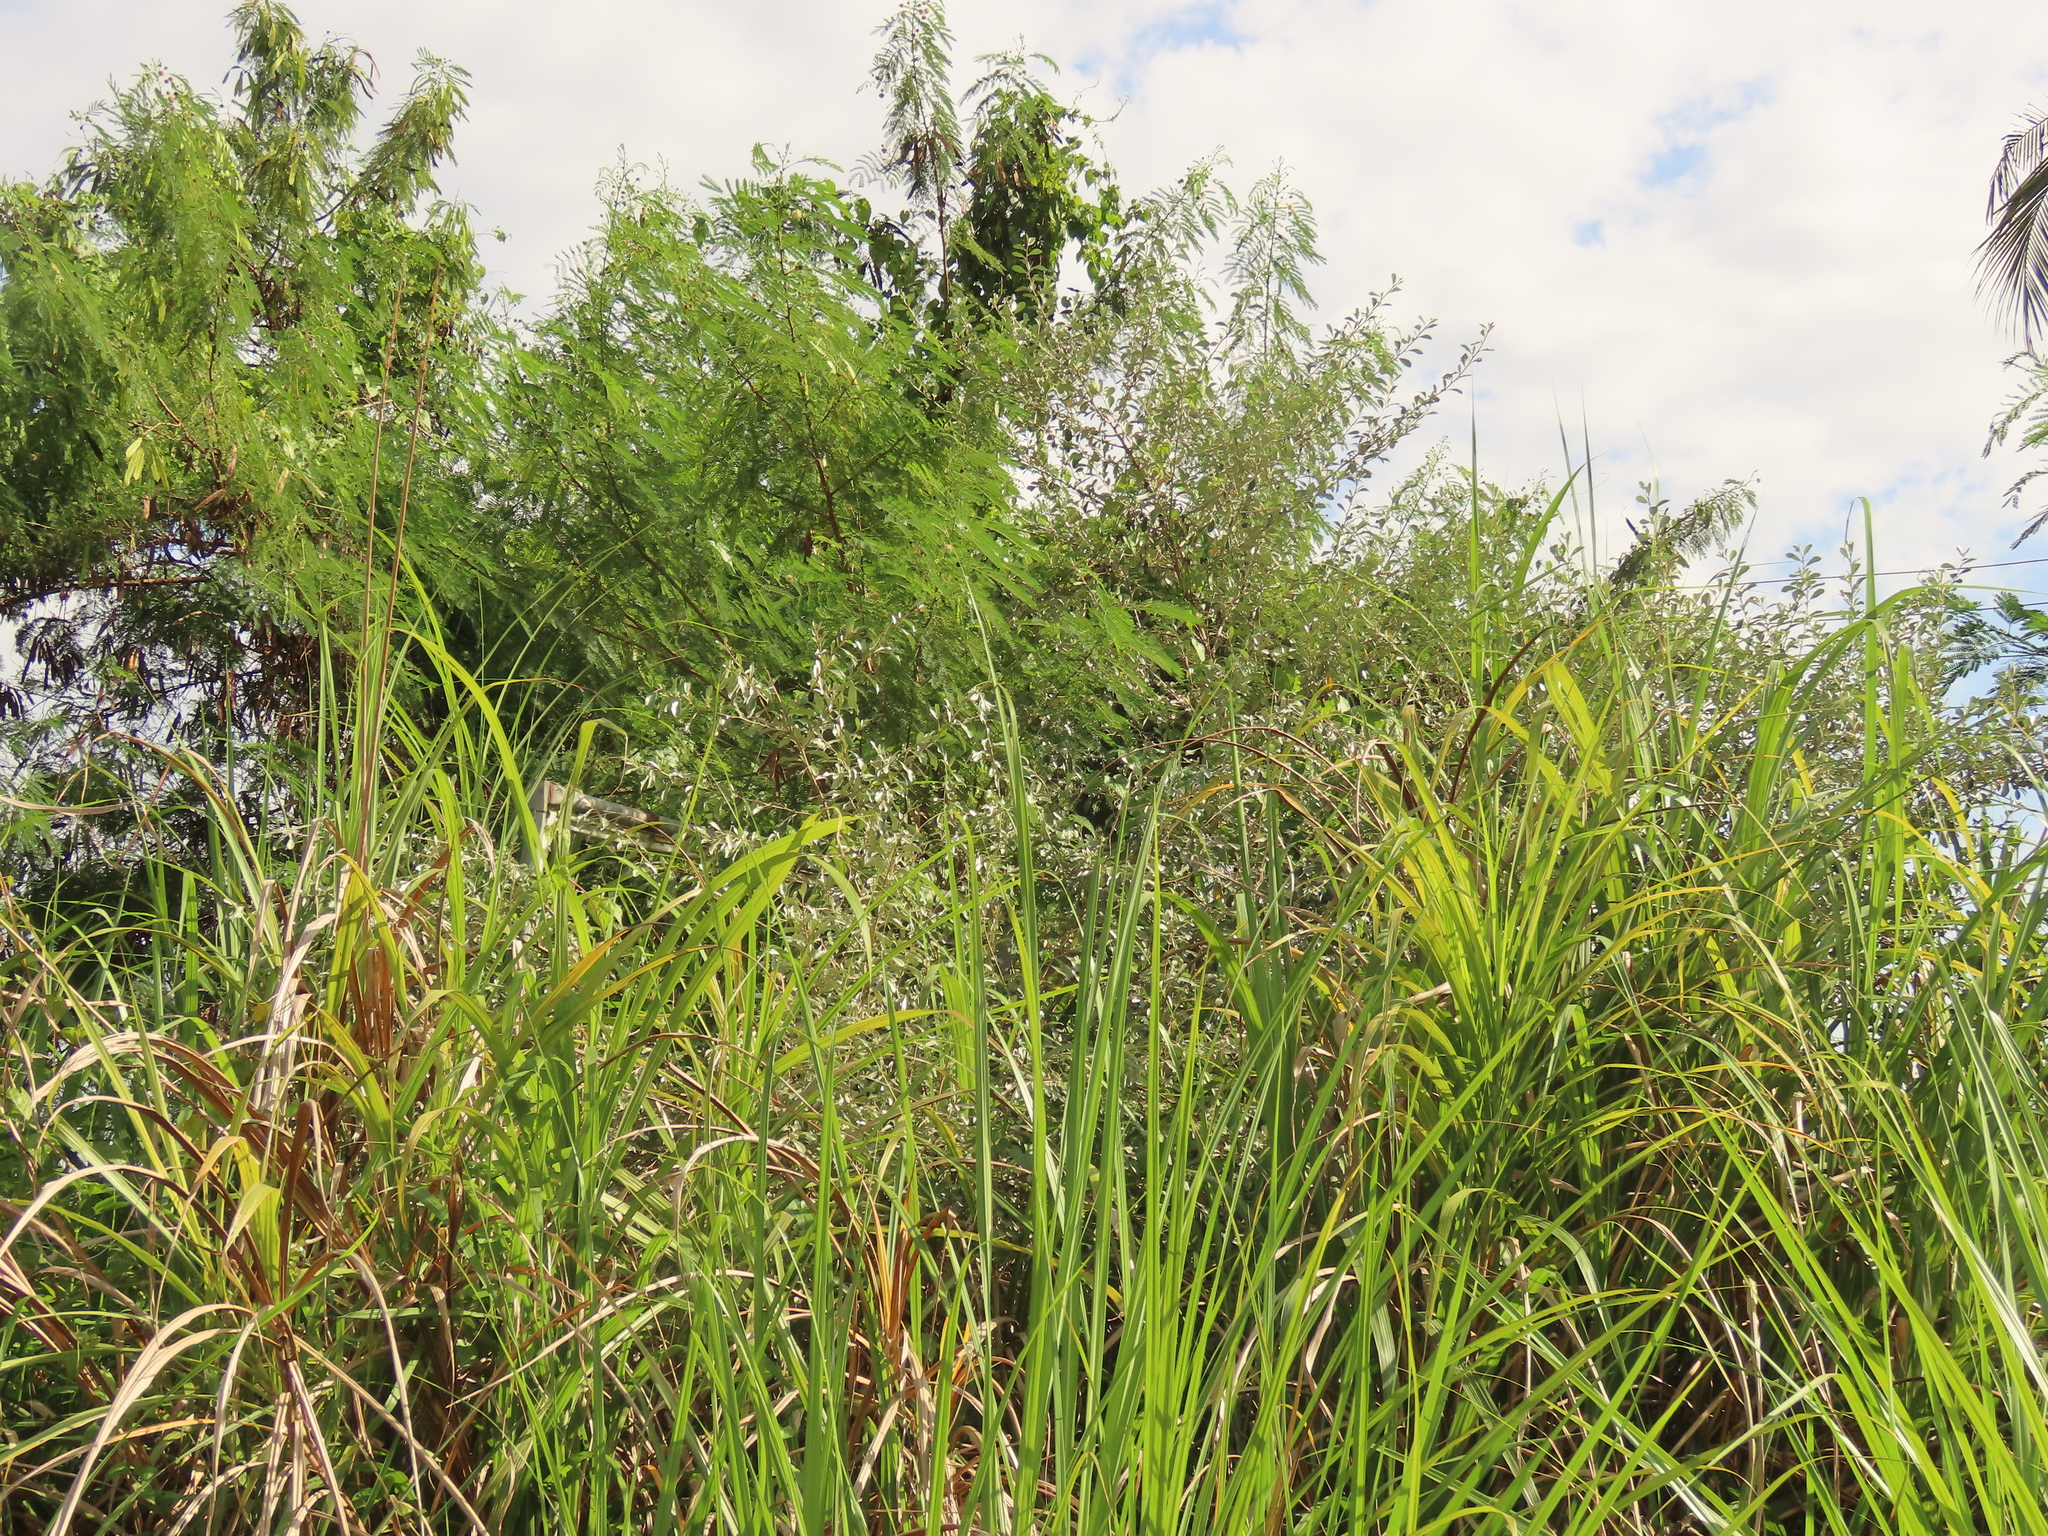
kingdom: Plantae
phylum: Tracheophyta
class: Magnoliopsida
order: Rosales
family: Elaeagnaceae
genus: Elaeagnus
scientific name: Elaeagnus oldhamii
